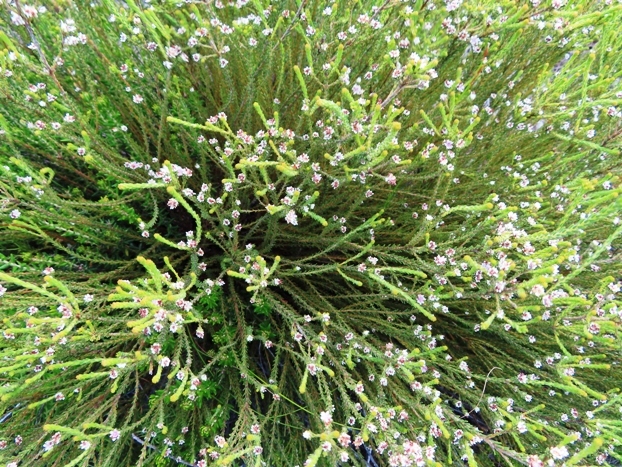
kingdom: Plantae
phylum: Tracheophyta
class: Magnoliopsida
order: Bruniales
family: Bruniaceae
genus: Staavia
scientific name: Staavia radiata
